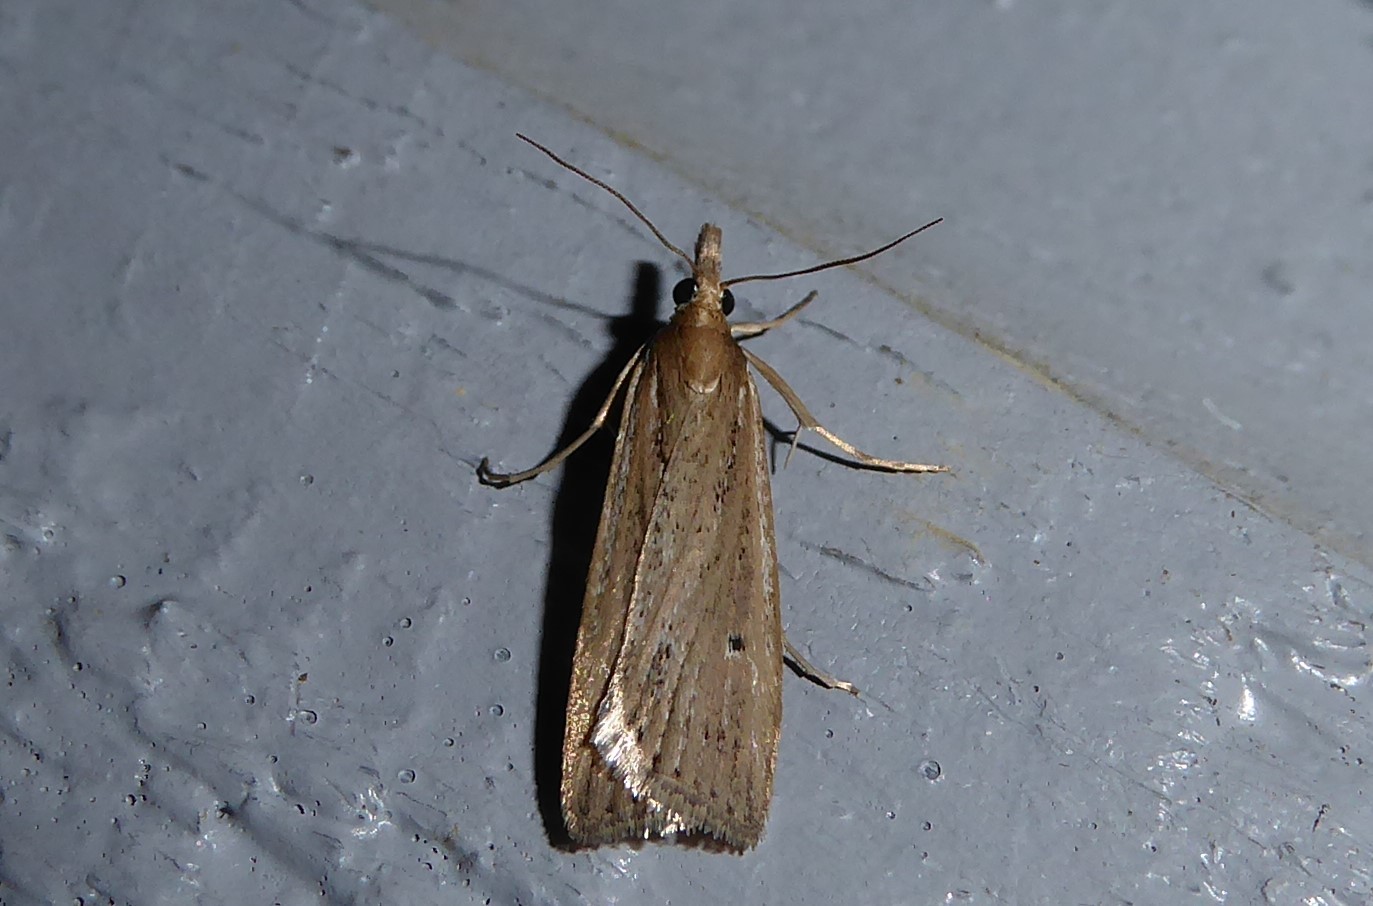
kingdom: Animalia
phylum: Arthropoda
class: Insecta
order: Lepidoptera
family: Crambidae
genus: Eudonia
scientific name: Eudonia sabulosella
